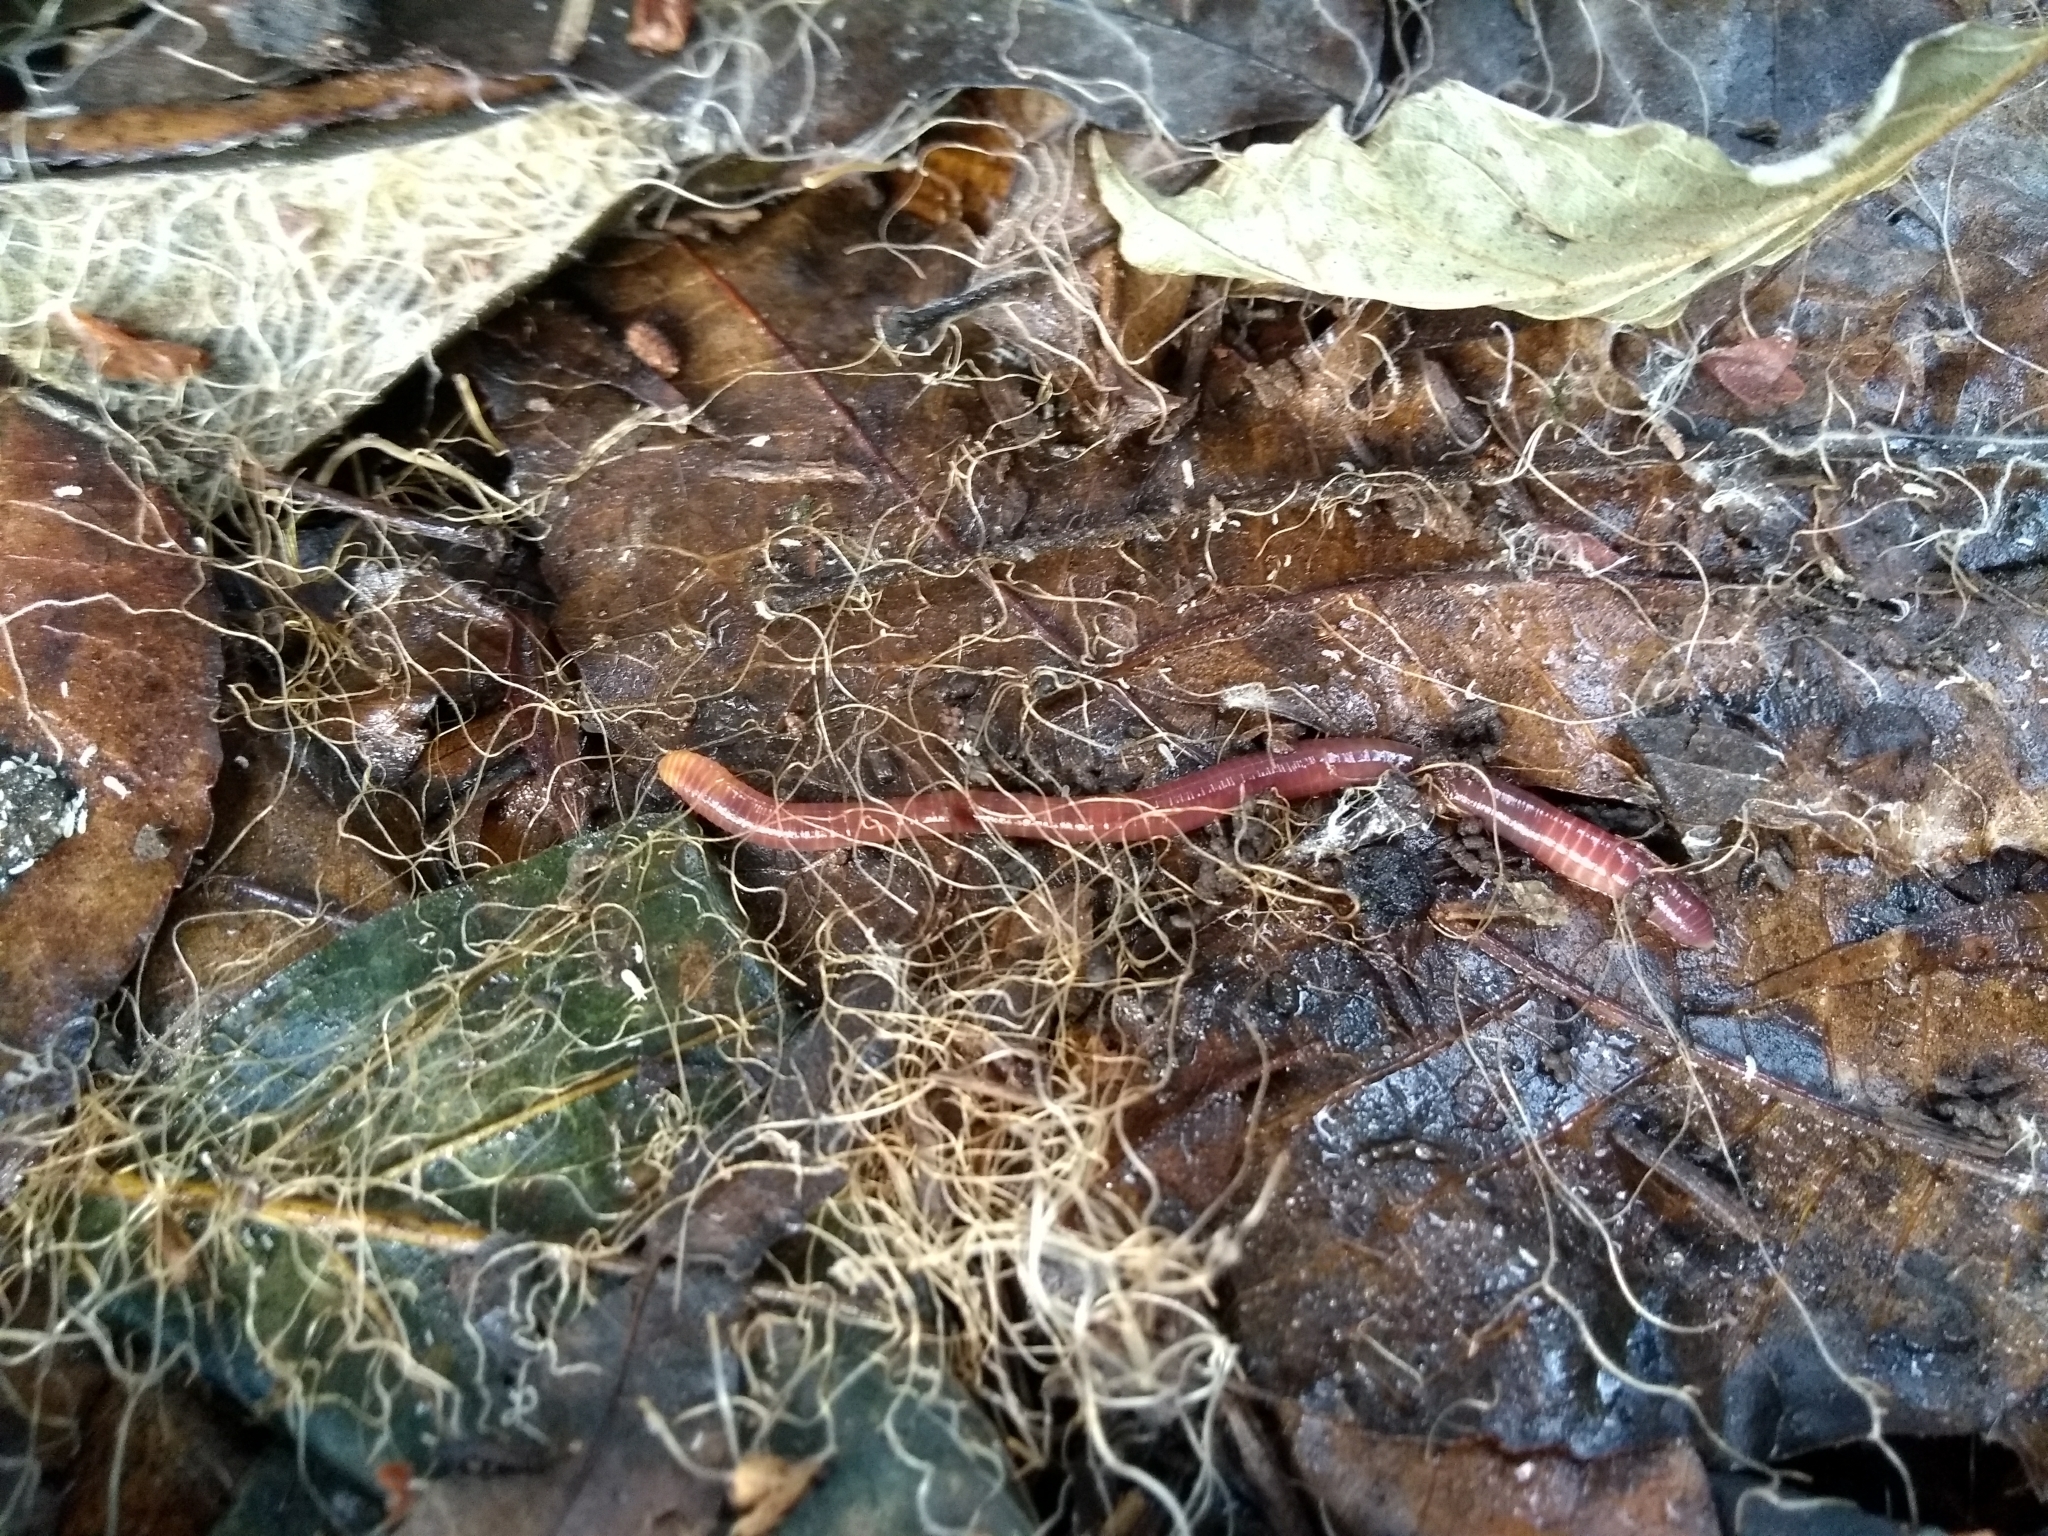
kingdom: Animalia
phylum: Annelida
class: Clitellata
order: Crassiclitellata
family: Lumbricidae
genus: Eisenia
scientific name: Eisenia andrei
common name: Manure worm
